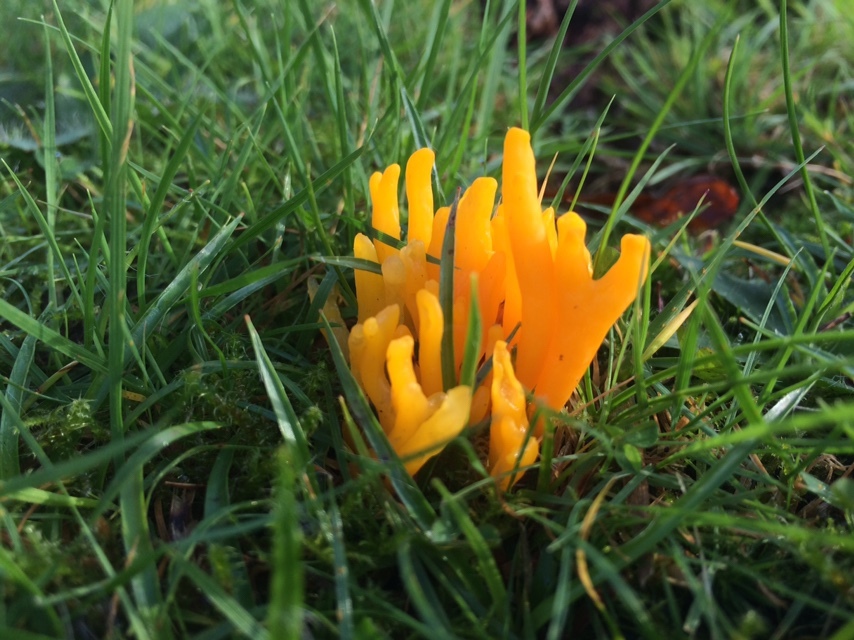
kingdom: Fungi
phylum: Basidiomycota
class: Dacrymycetes
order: Dacrymycetales
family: Dacrymycetaceae
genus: Calocera
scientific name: Calocera viscosa
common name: Yellow stagshorn
